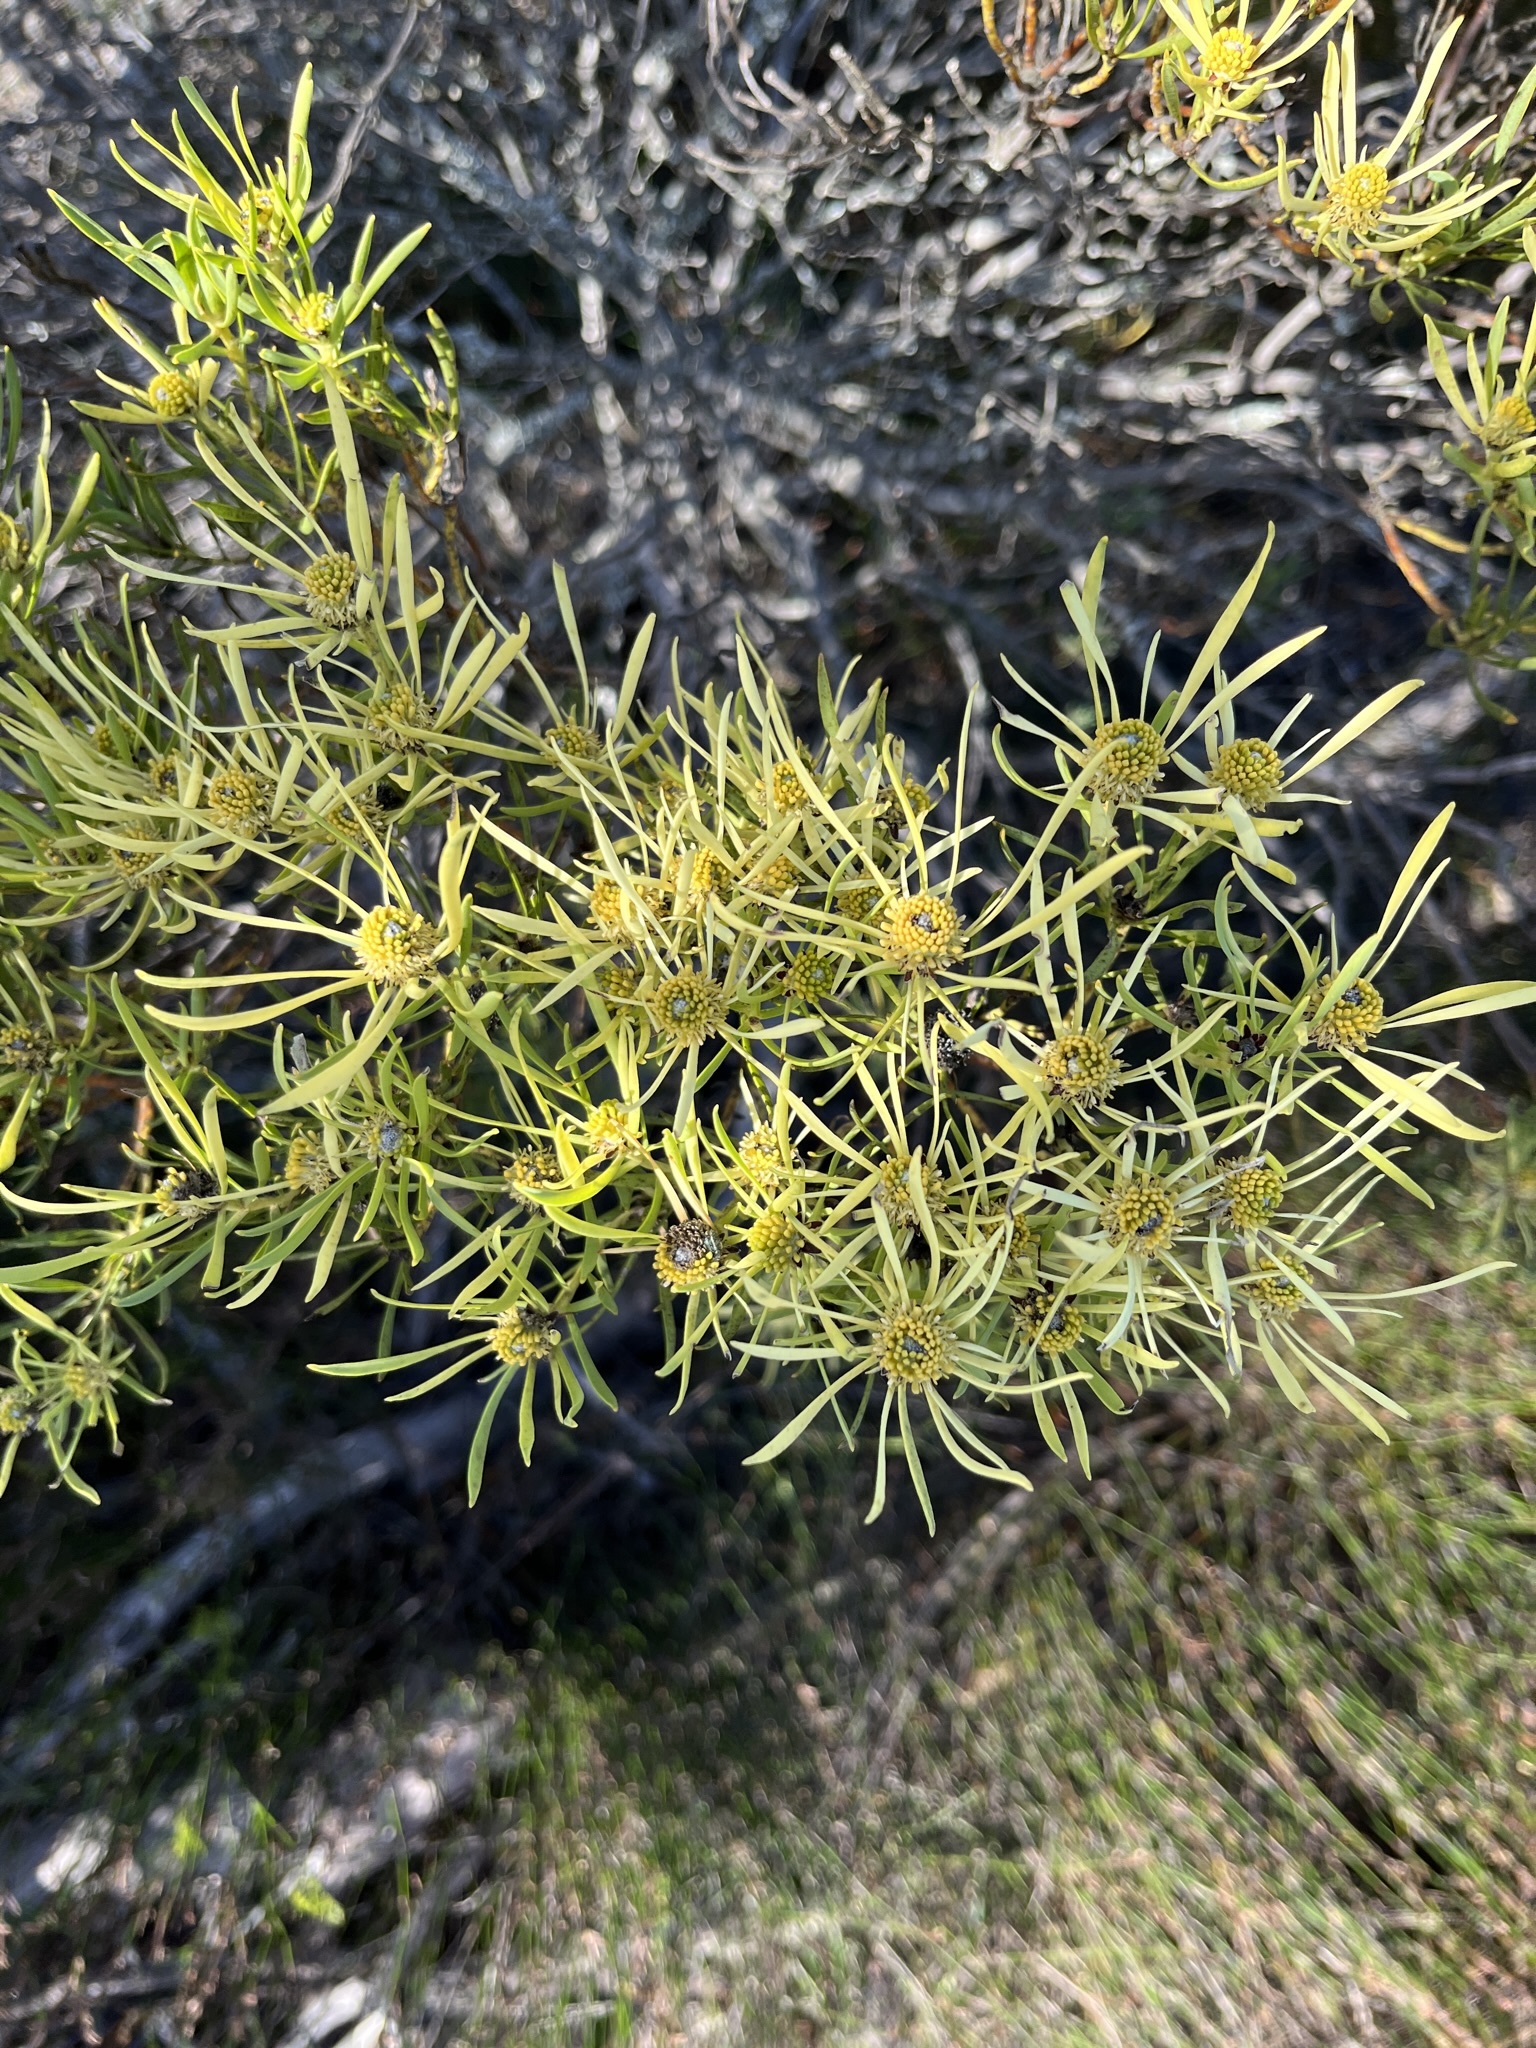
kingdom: Plantae
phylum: Tracheophyta
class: Magnoliopsida
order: Proteales
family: Proteaceae
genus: Leucadendron
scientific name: Leucadendron salignum
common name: Common sunshine conebush
